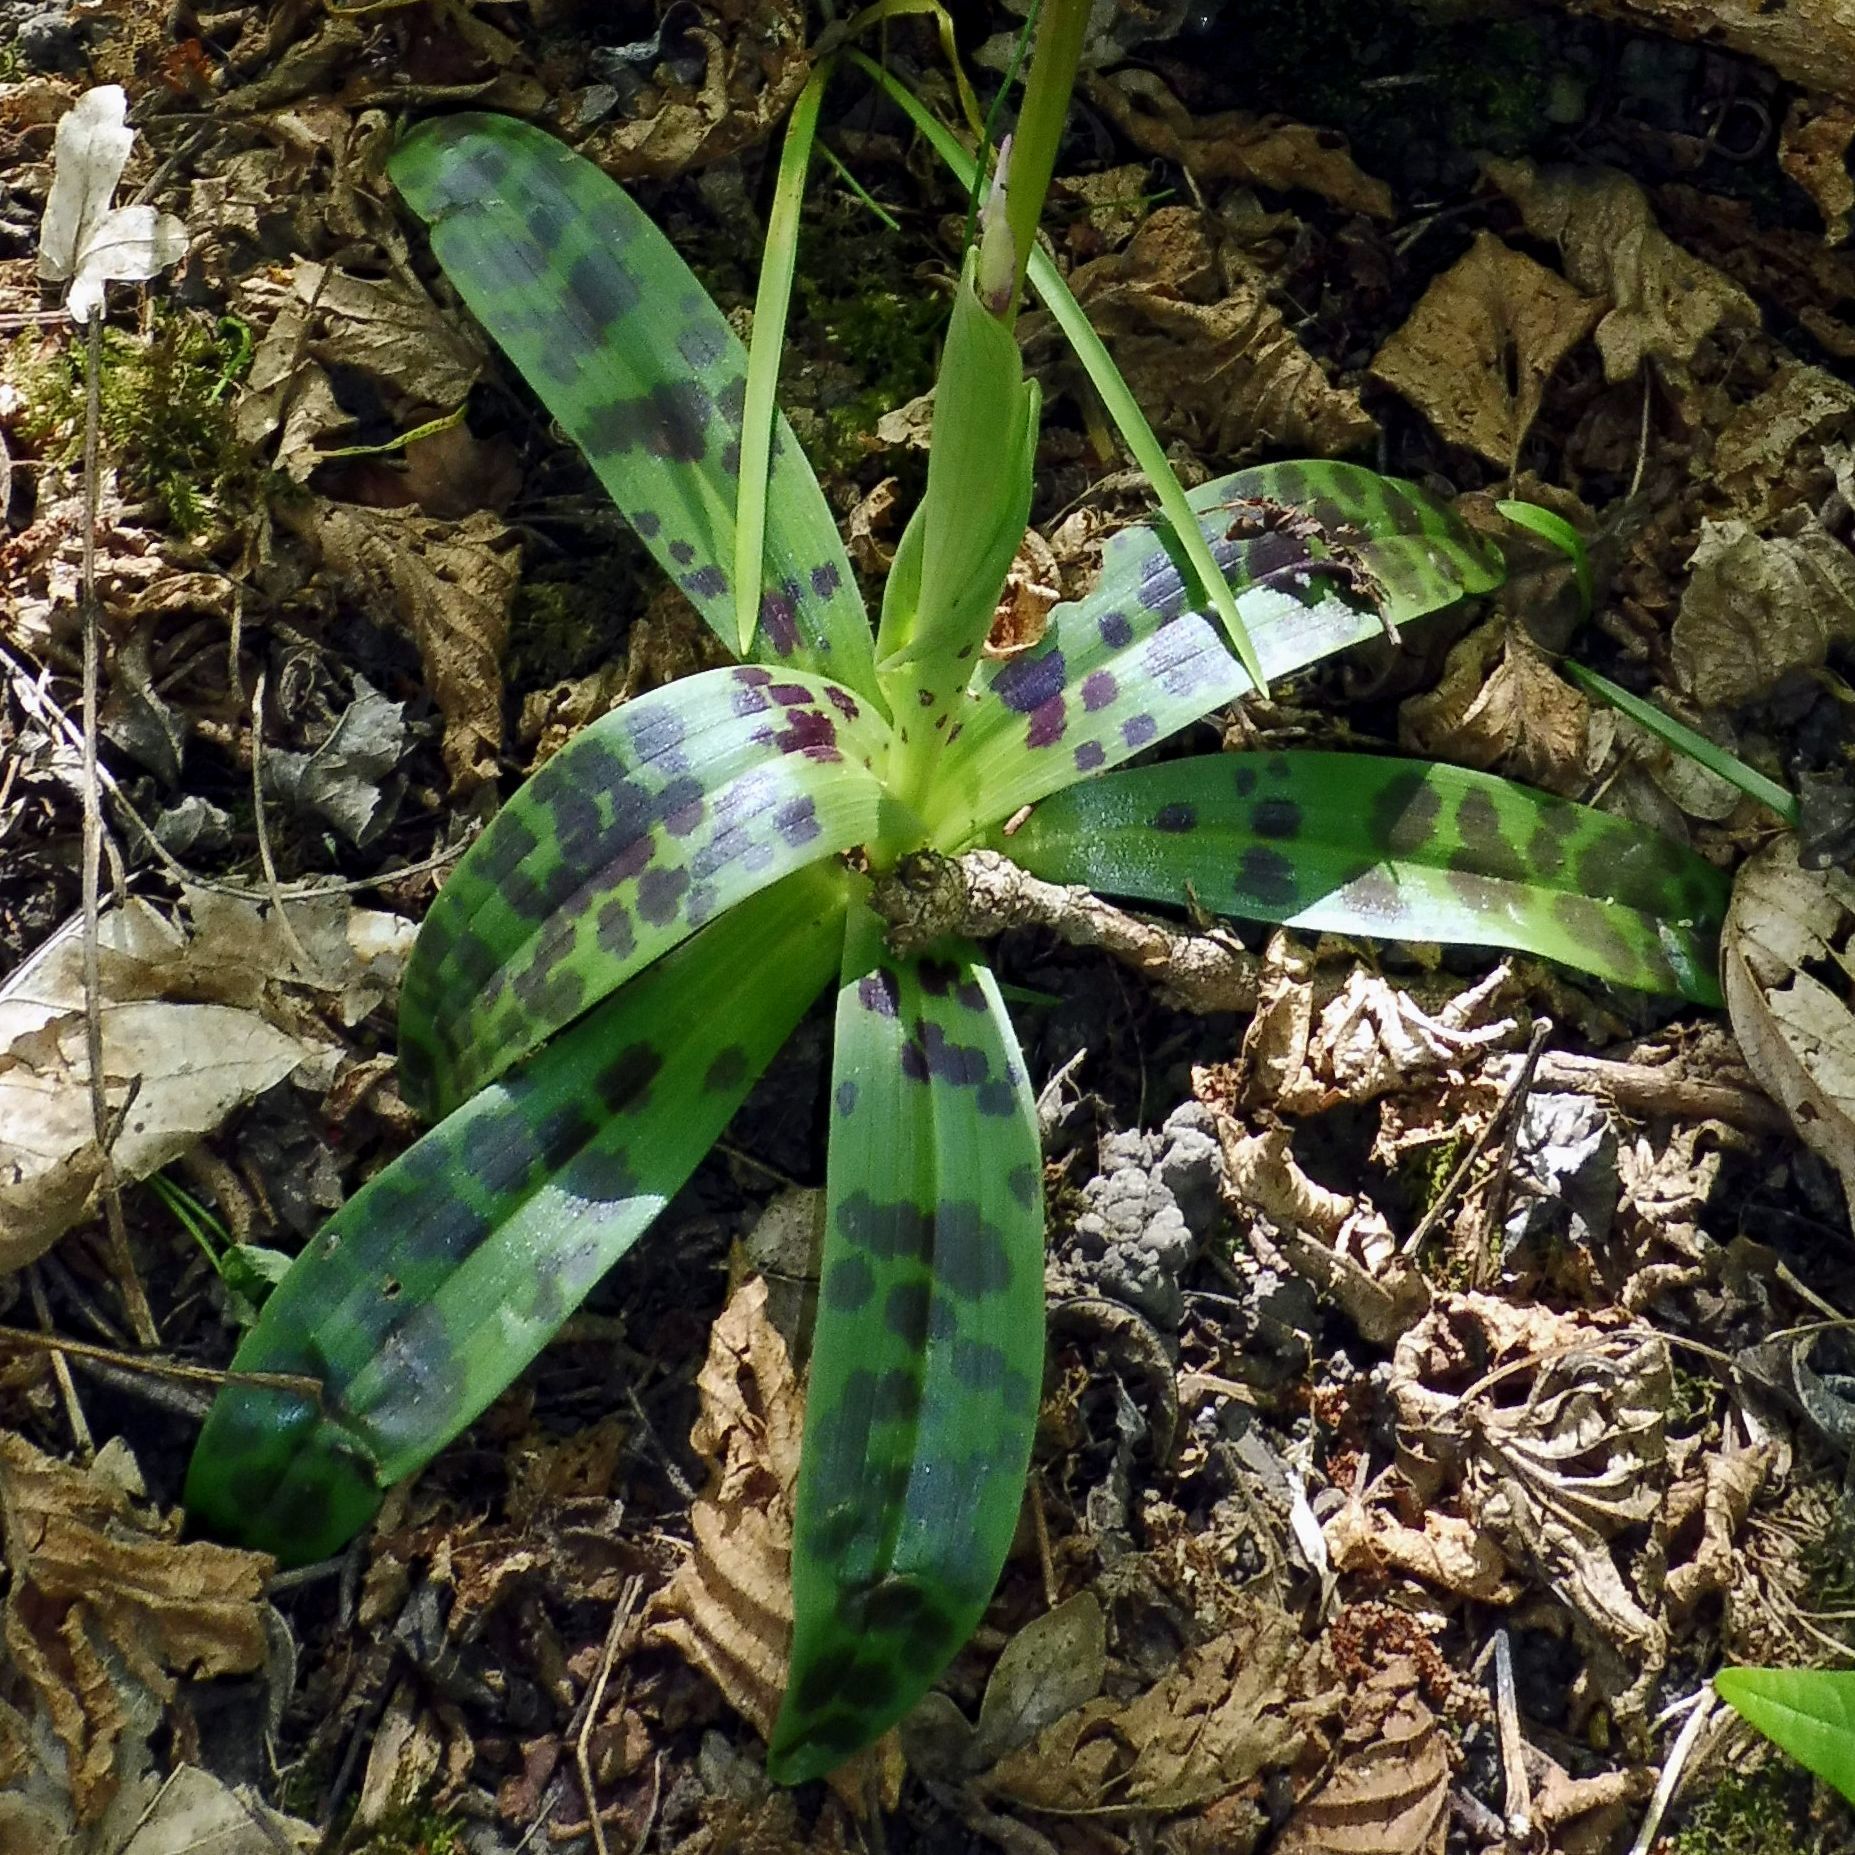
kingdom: Plantae
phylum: Tracheophyta
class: Liliopsida
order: Asparagales
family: Orchidaceae
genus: Orchis
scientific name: Orchis mascula
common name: Early-purple orchid
